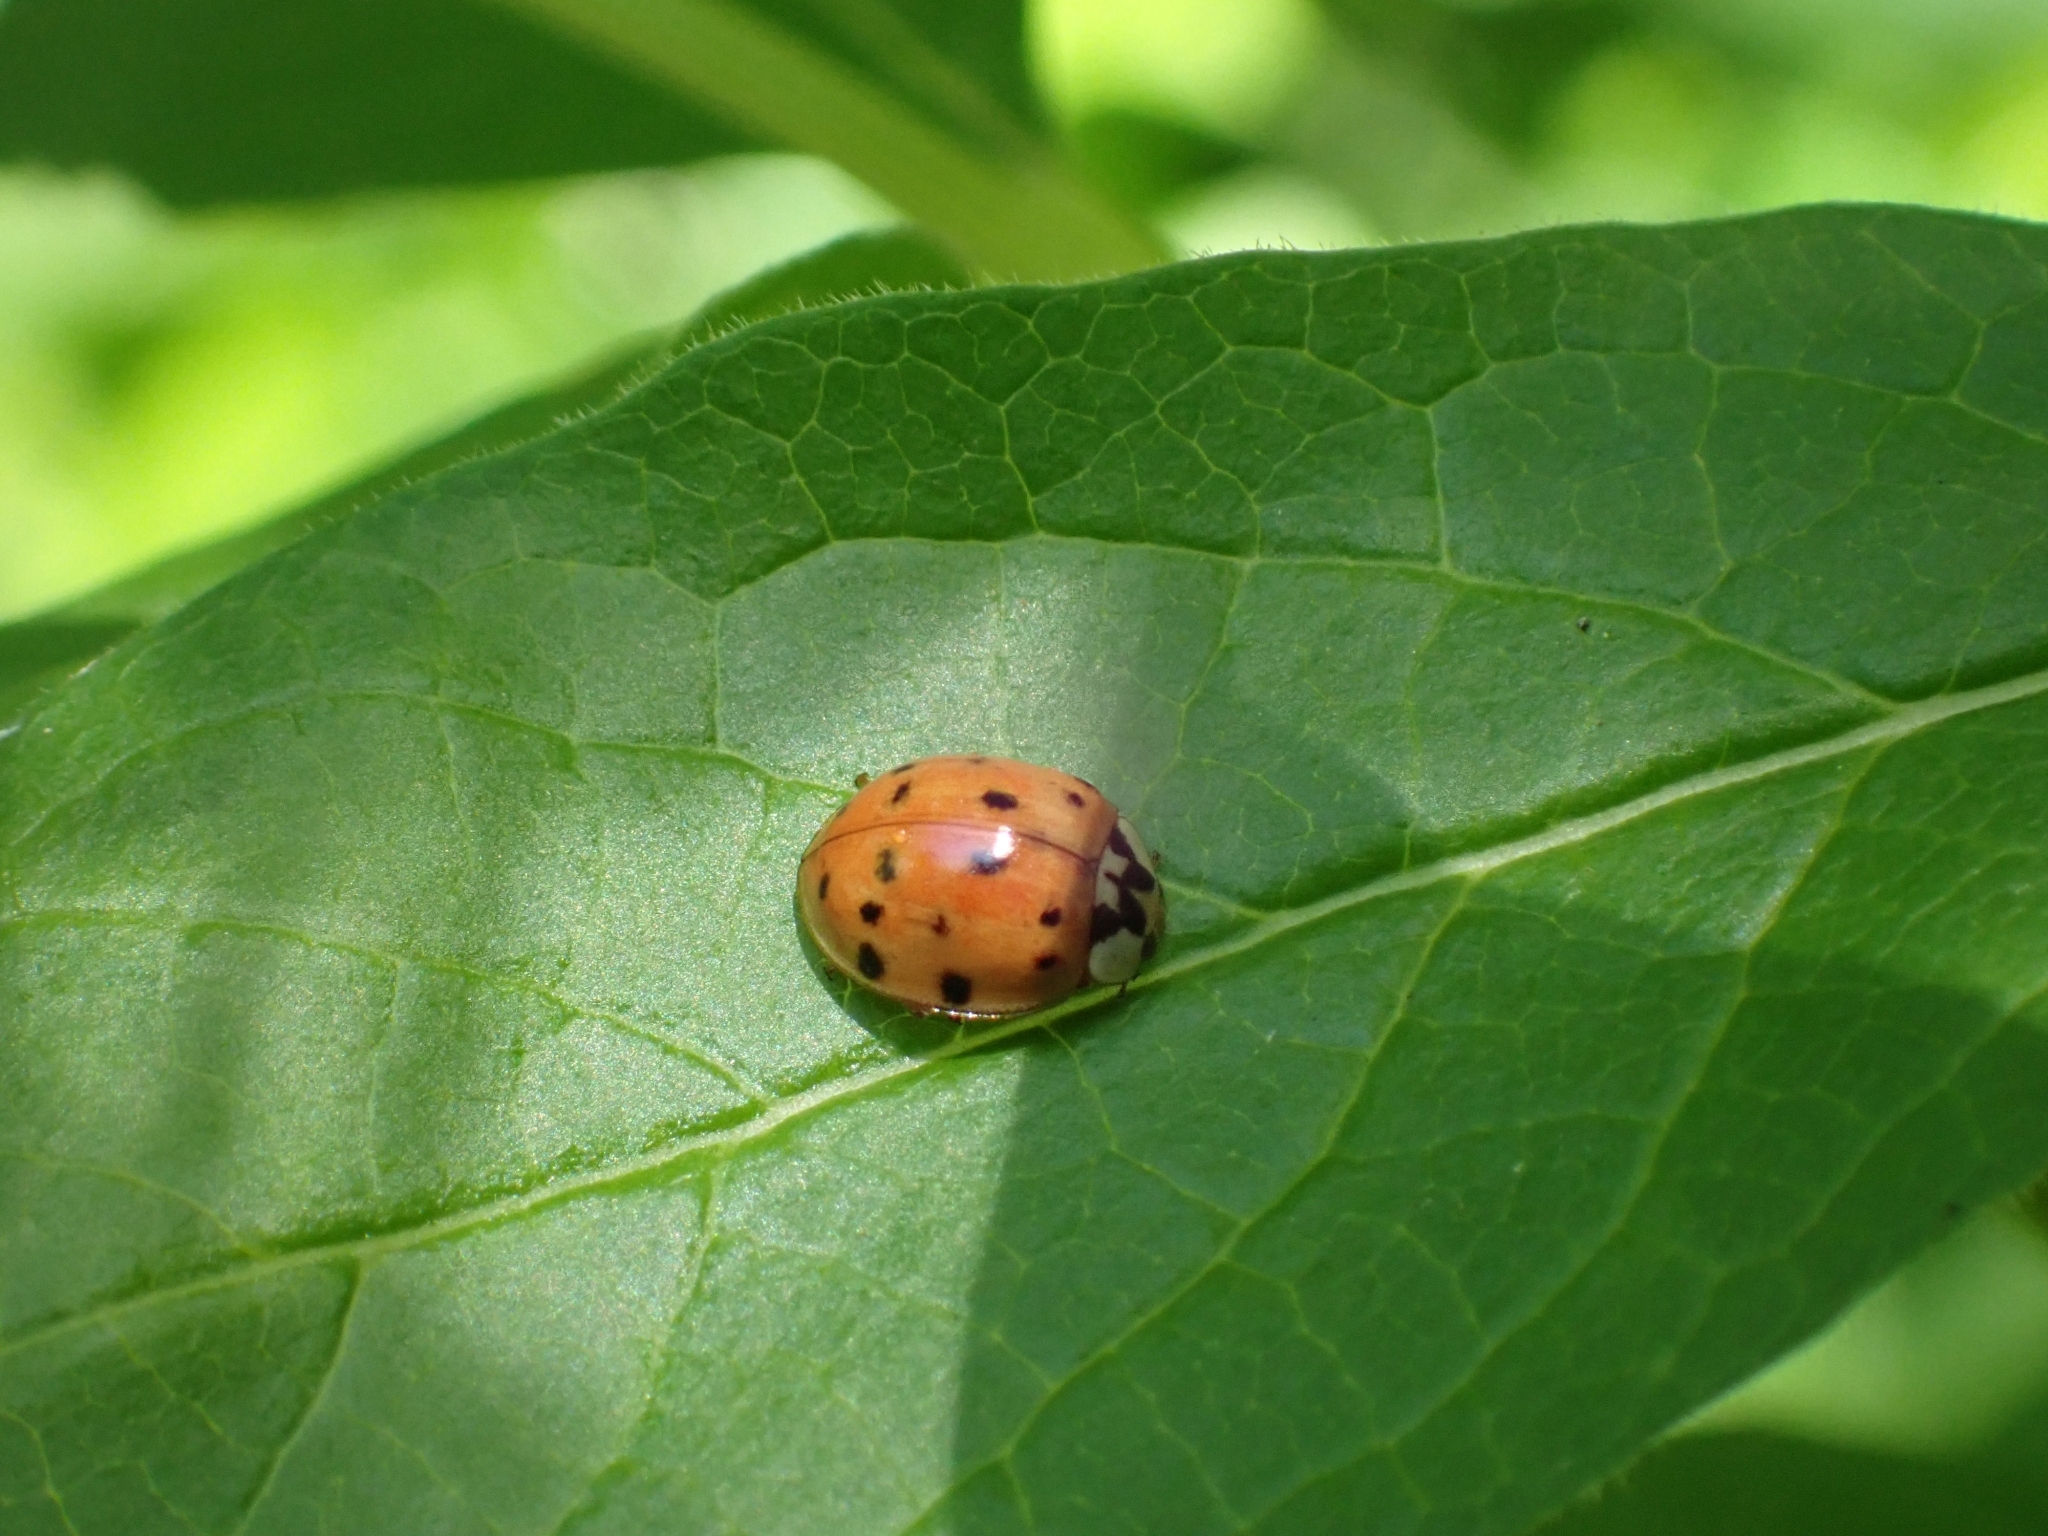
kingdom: Animalia
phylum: Arthropoda
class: Insecta
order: Coleoptera
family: Coccinellidae
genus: Harmonia
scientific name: Harmonia axyridis
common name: Harlequin ladybird
